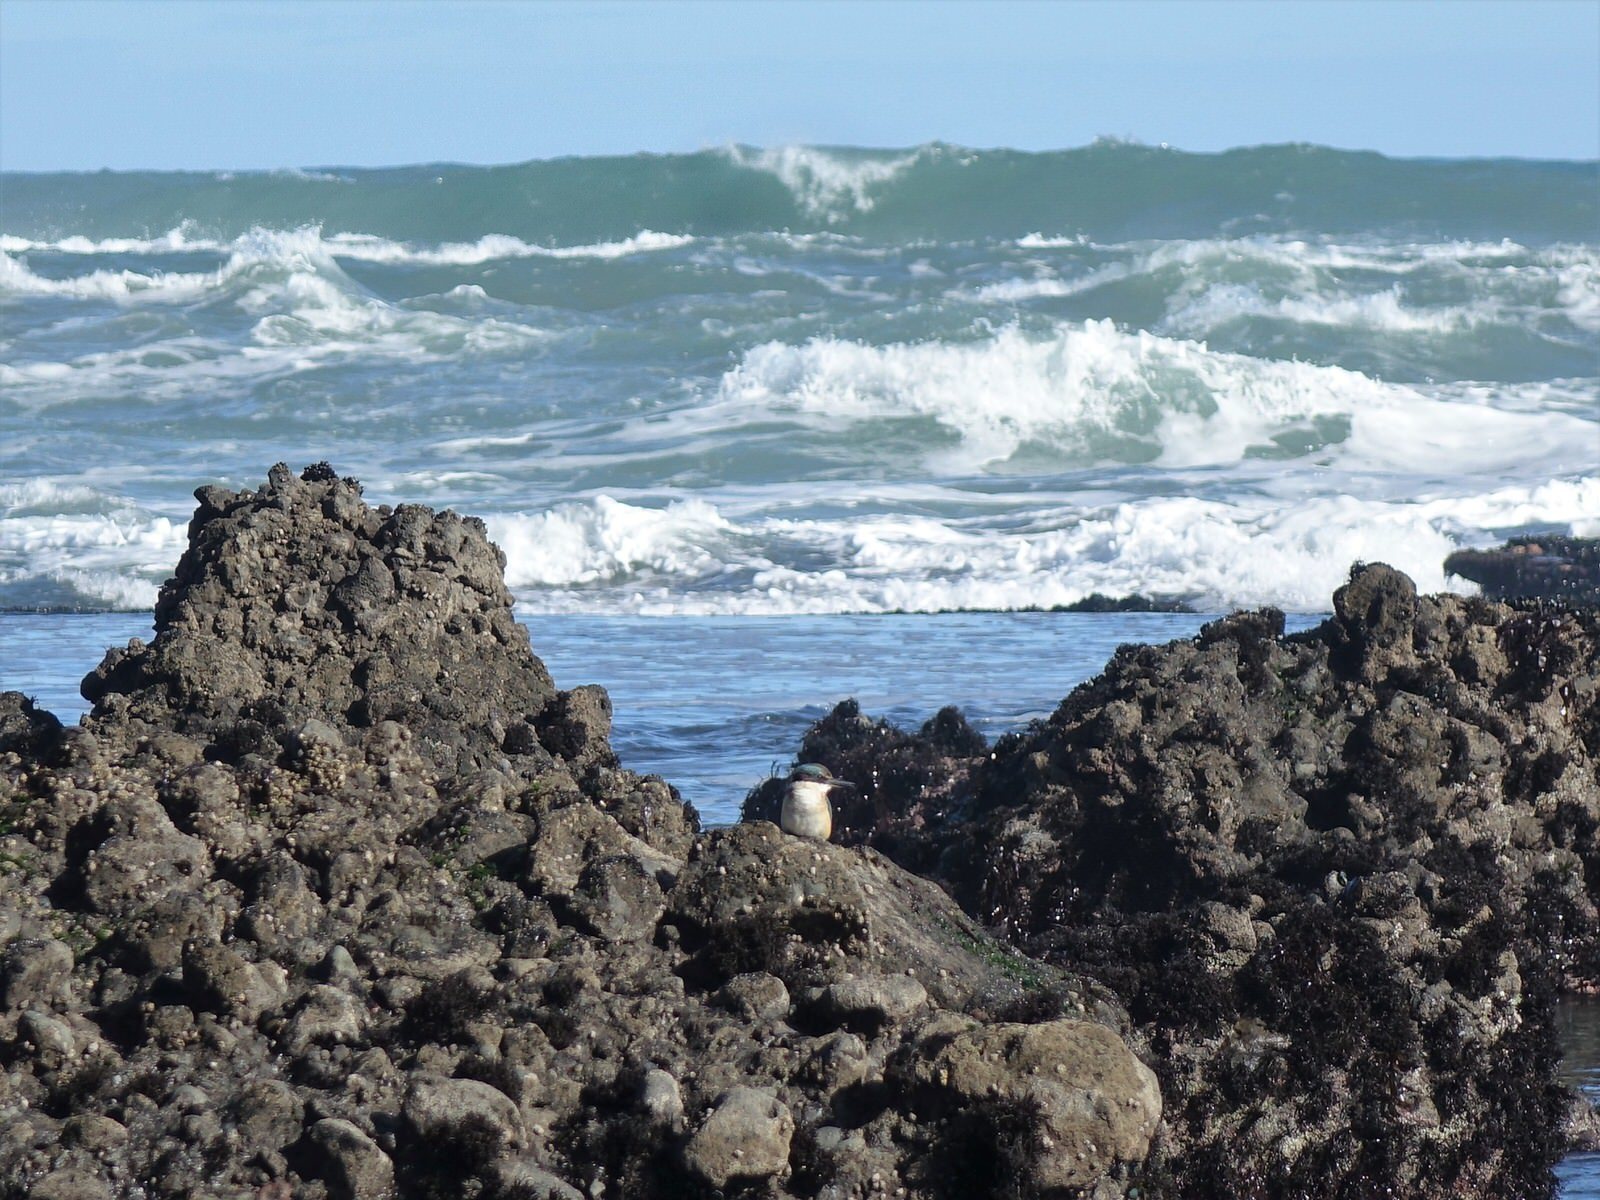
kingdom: Animalia
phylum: Chordata
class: Aves
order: Coraciiformes
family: Alcedinidae
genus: Todiramphus
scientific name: Todiramphus sanctus
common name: Sacred kingfisher
